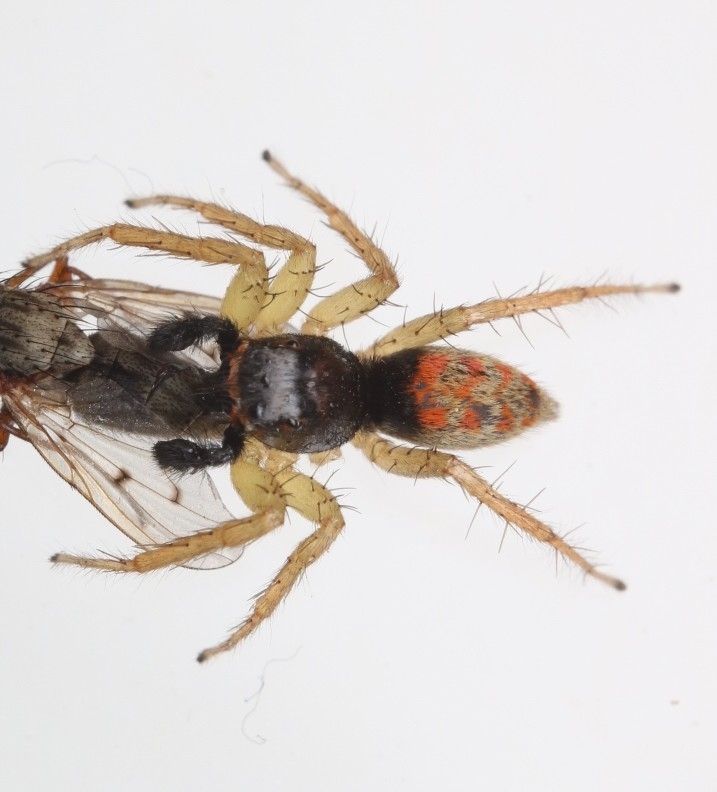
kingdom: Animalia
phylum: Arthropoda
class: Arachnida
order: Araneae
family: Salticidae
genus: Maevia
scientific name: Maevia inclemens
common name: Dimorphic jumper
